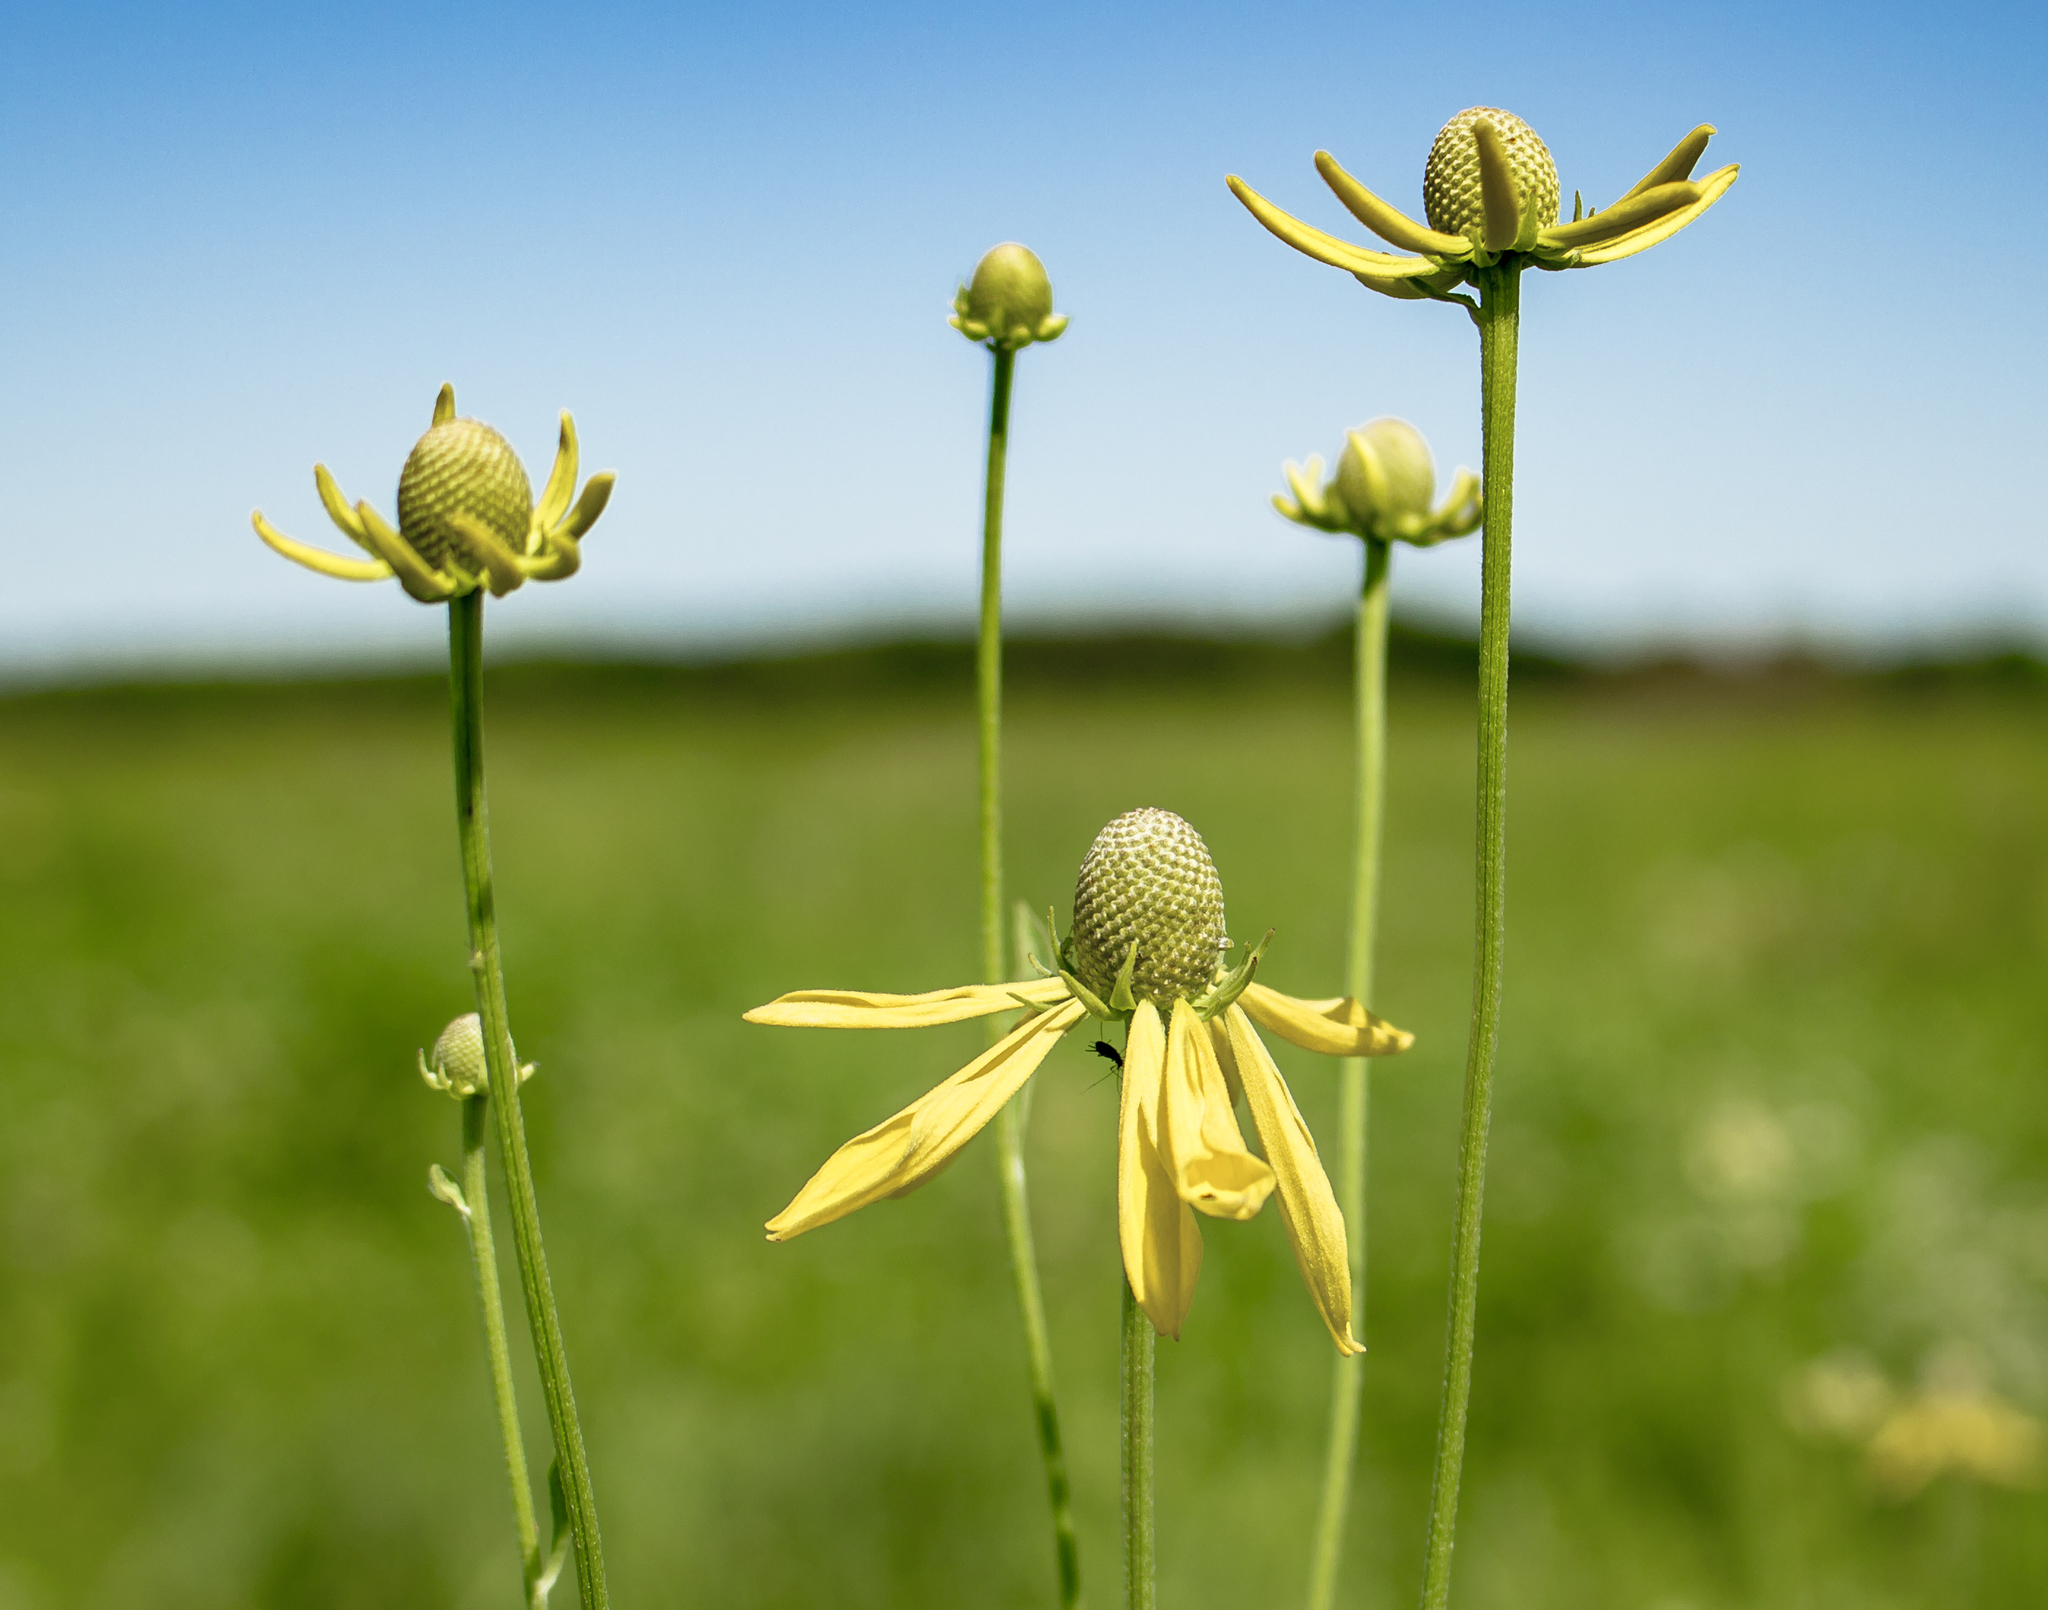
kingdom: Plantae
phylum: Tracheophyta
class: Magnoliopsida
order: Asterales
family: Asteraceae
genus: Ratibida
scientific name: Ratibida pinnata
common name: Drooping prairie-coneflower
